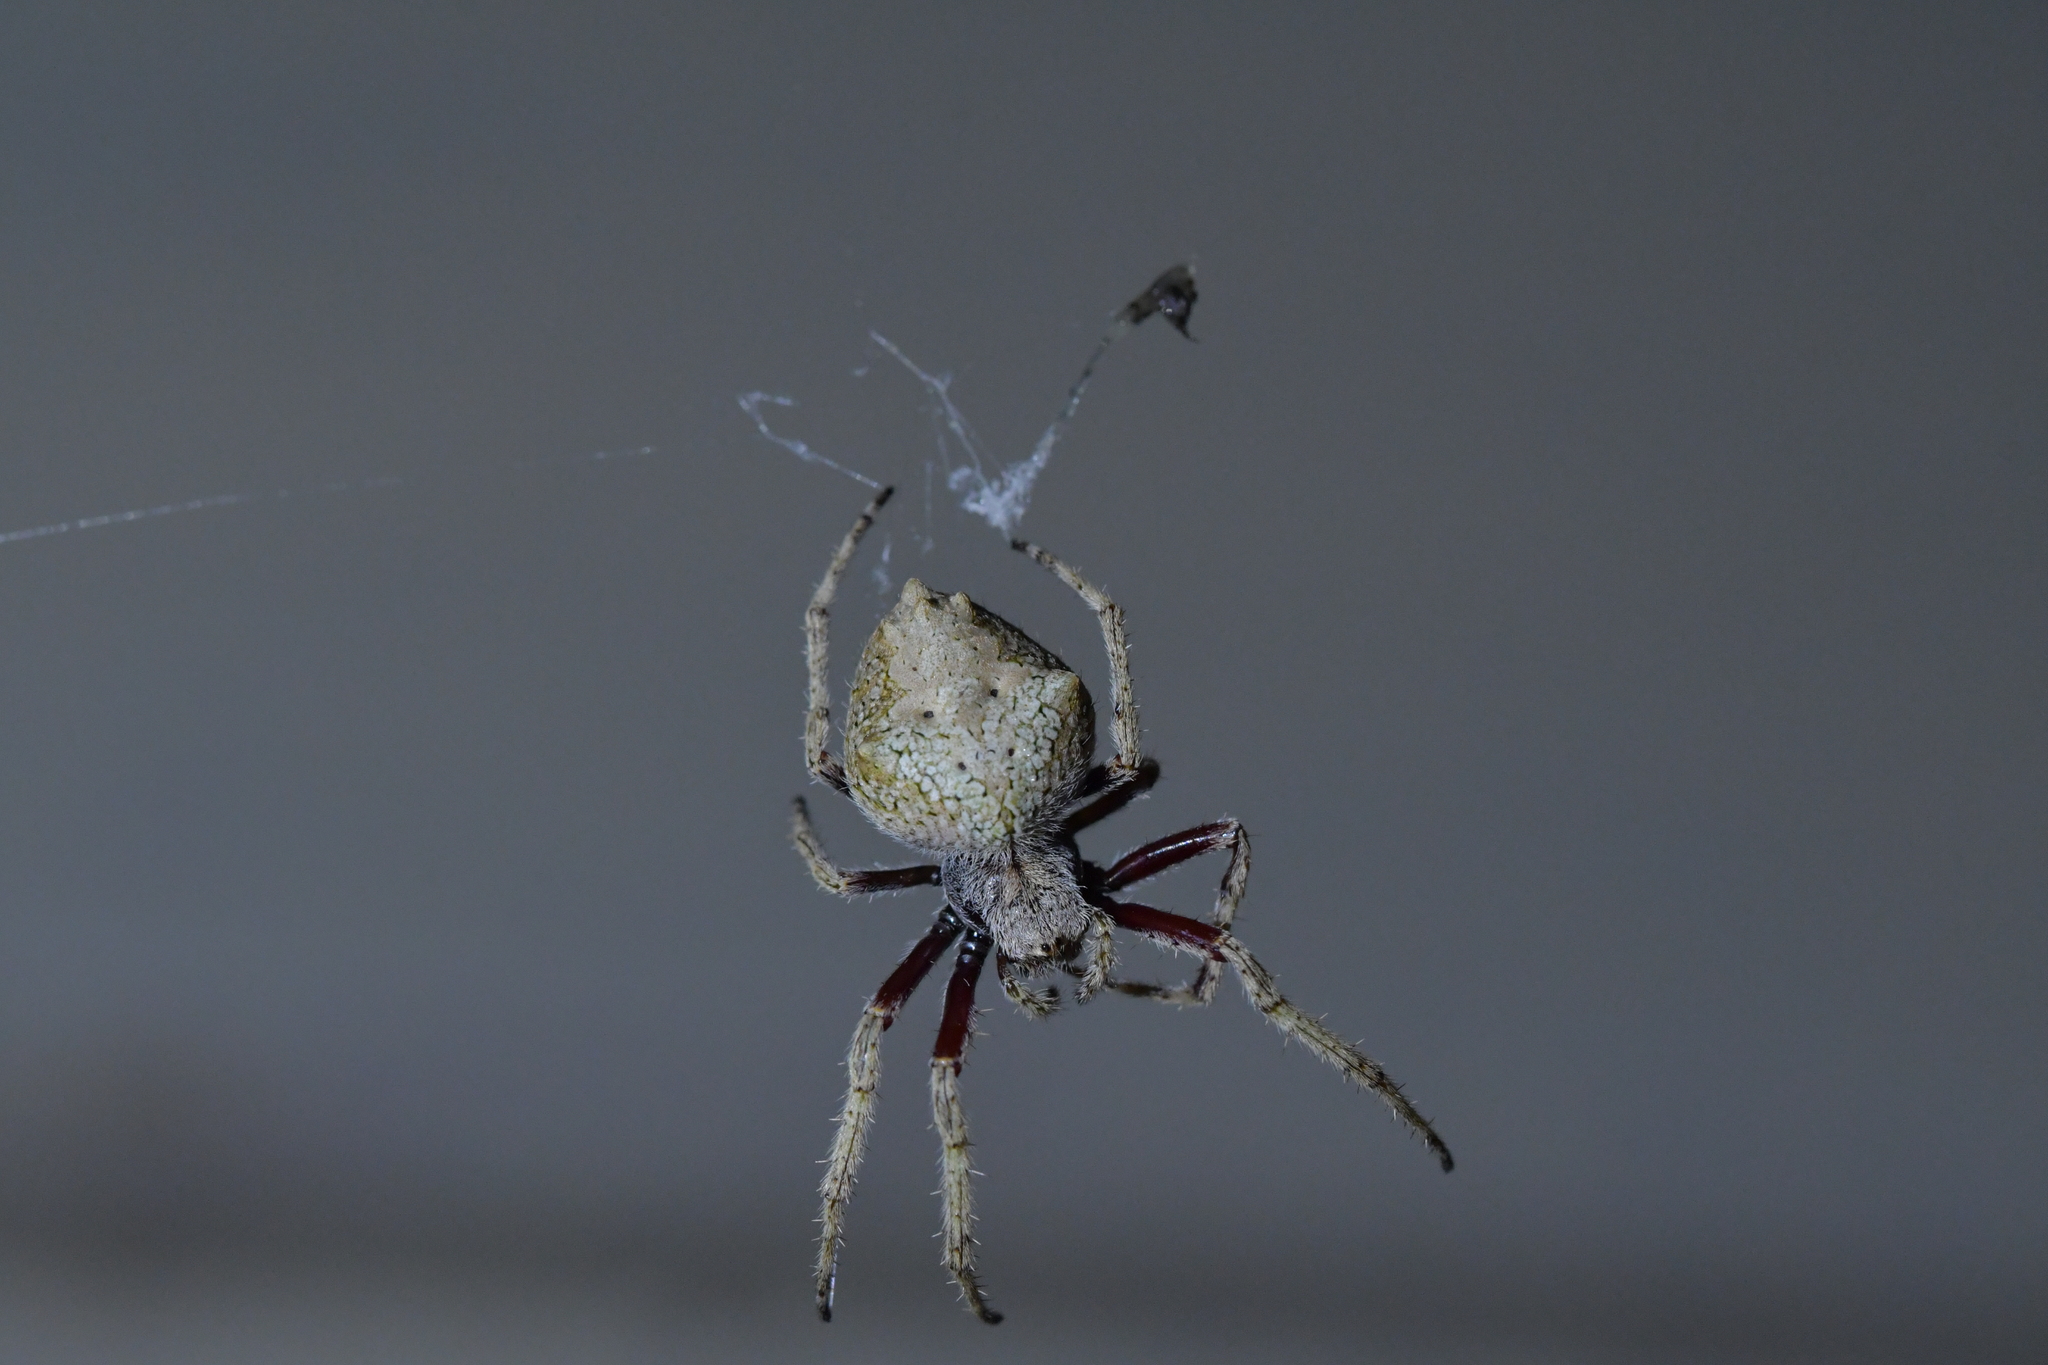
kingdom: Animalia
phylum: Arthropoda
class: Arachnida
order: Araneae
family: Araneidae
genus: Eriophora
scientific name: Eriophora pustulosa
